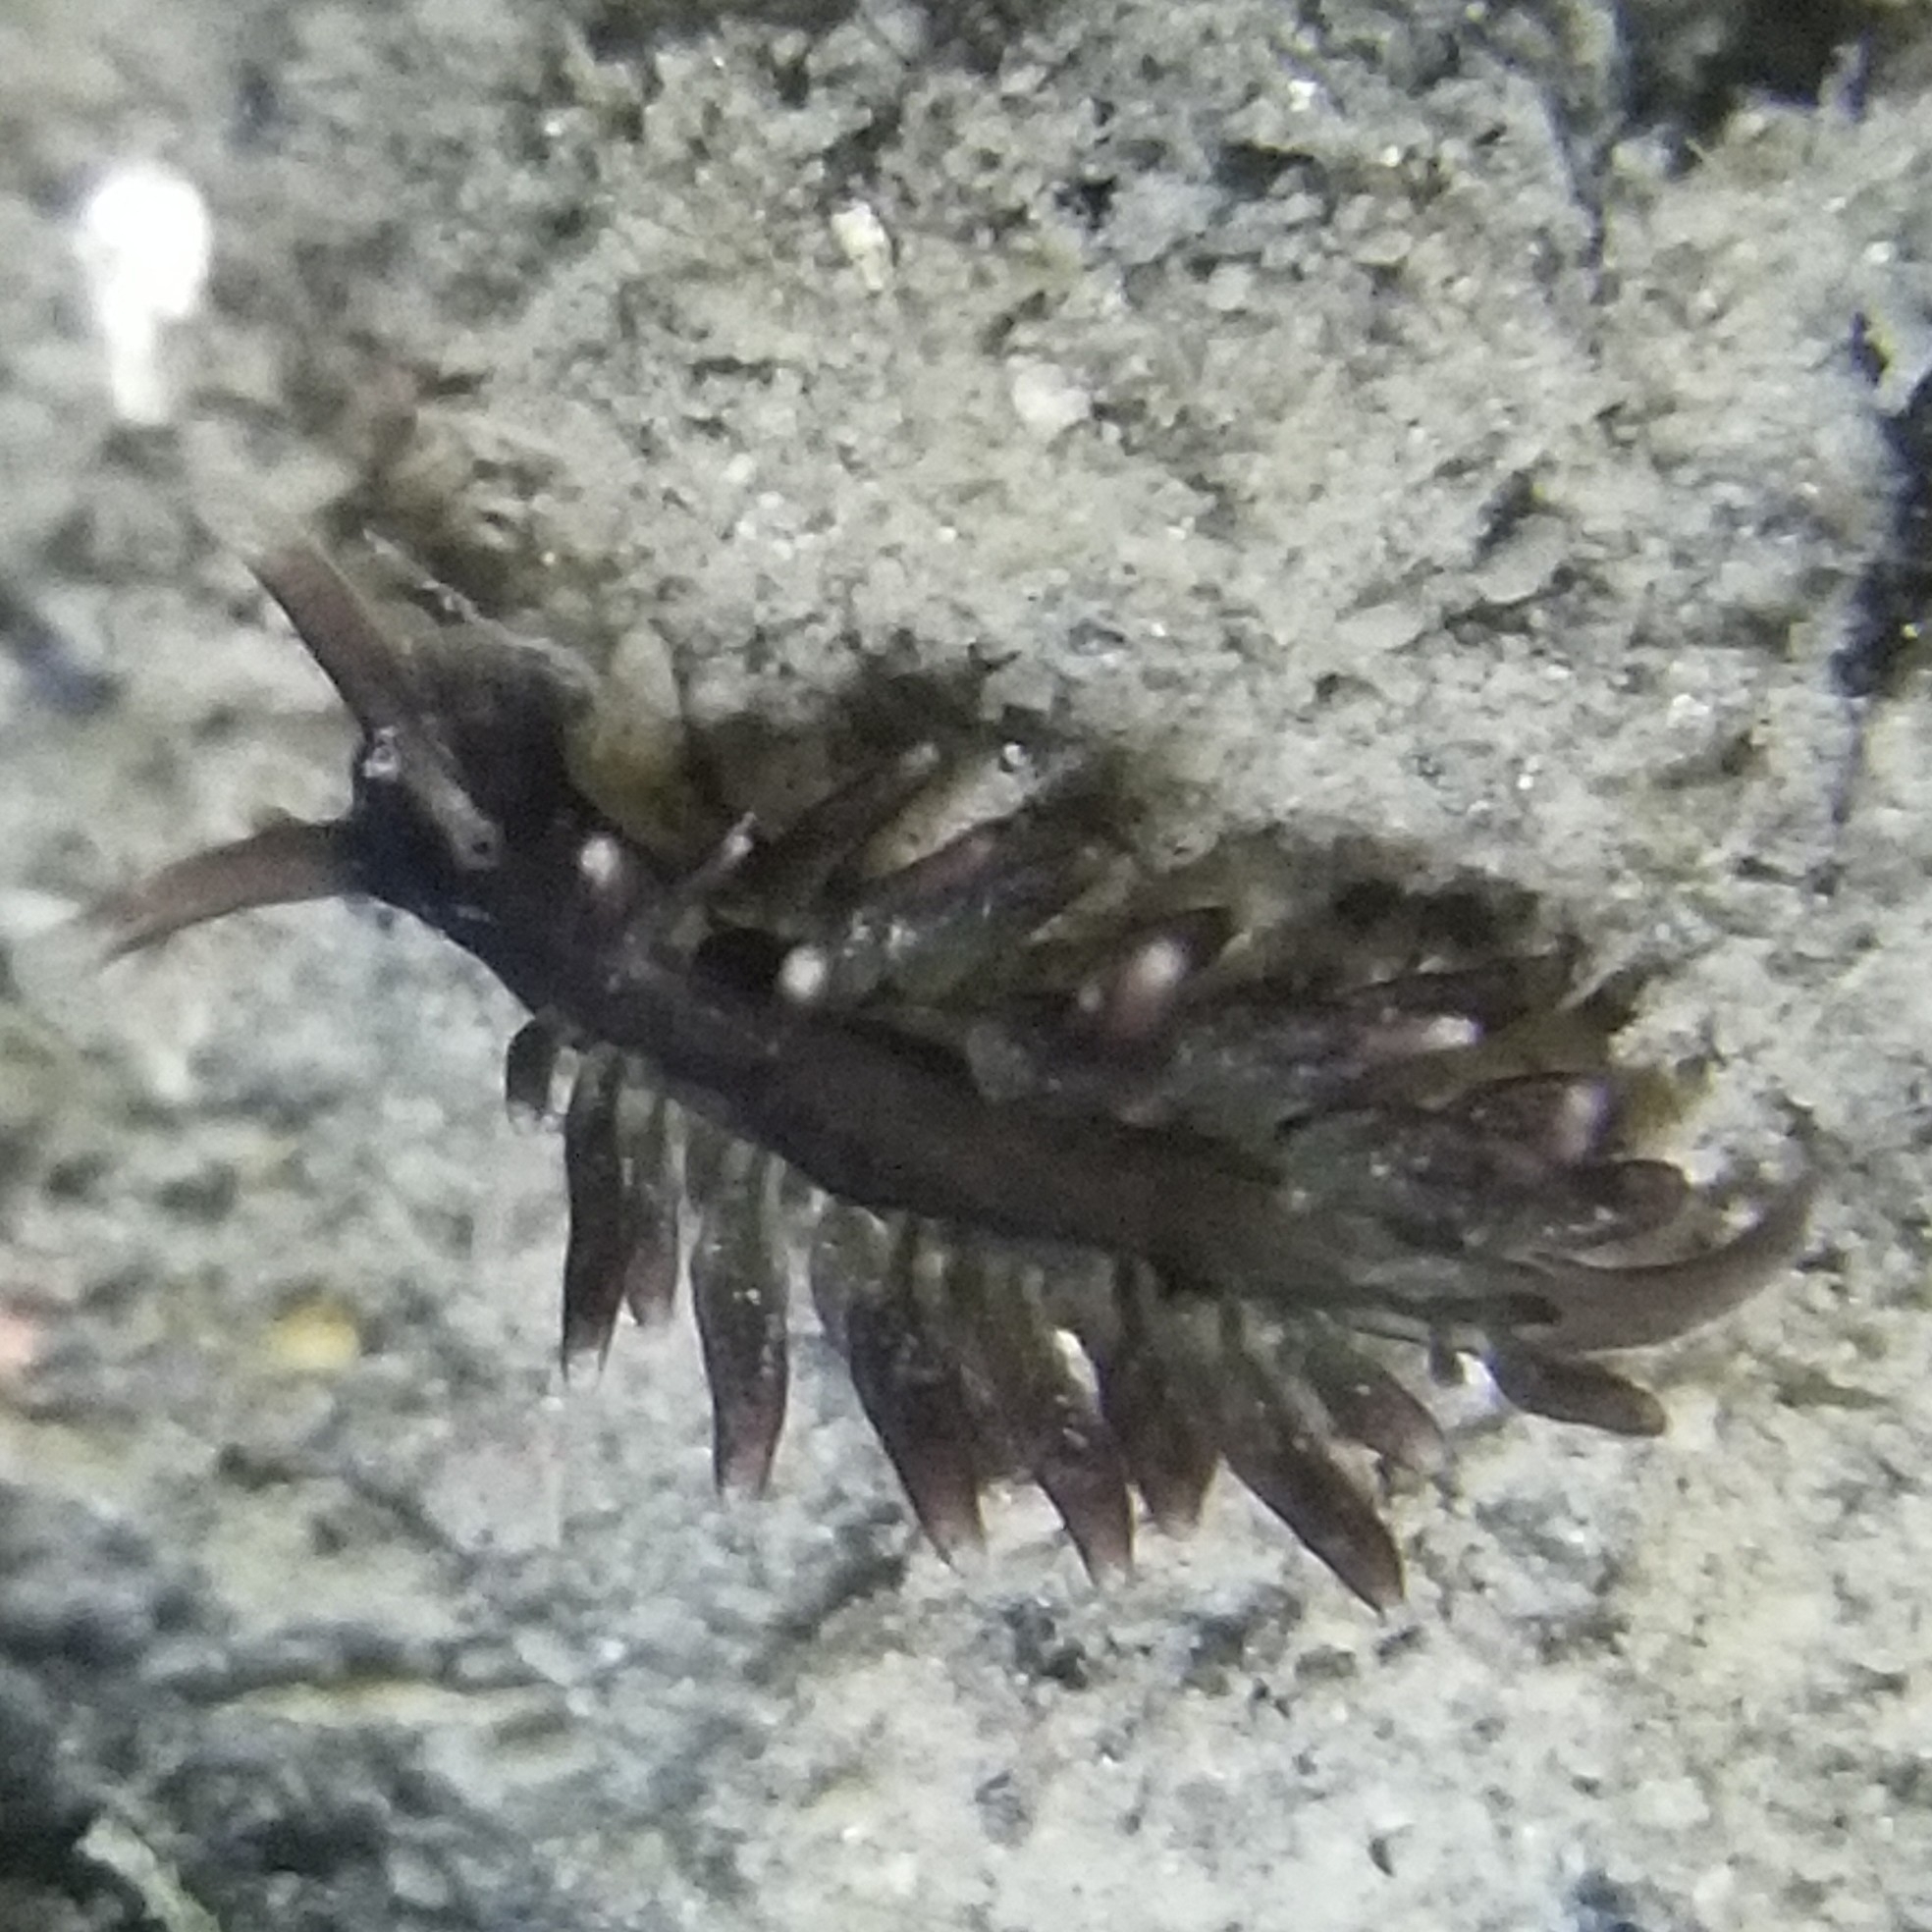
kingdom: Animalia
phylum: Mollusca
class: Gastropoda
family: Hermaeidae
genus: Aplysiopsis
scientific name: Aplysiopsis enteromorphae
